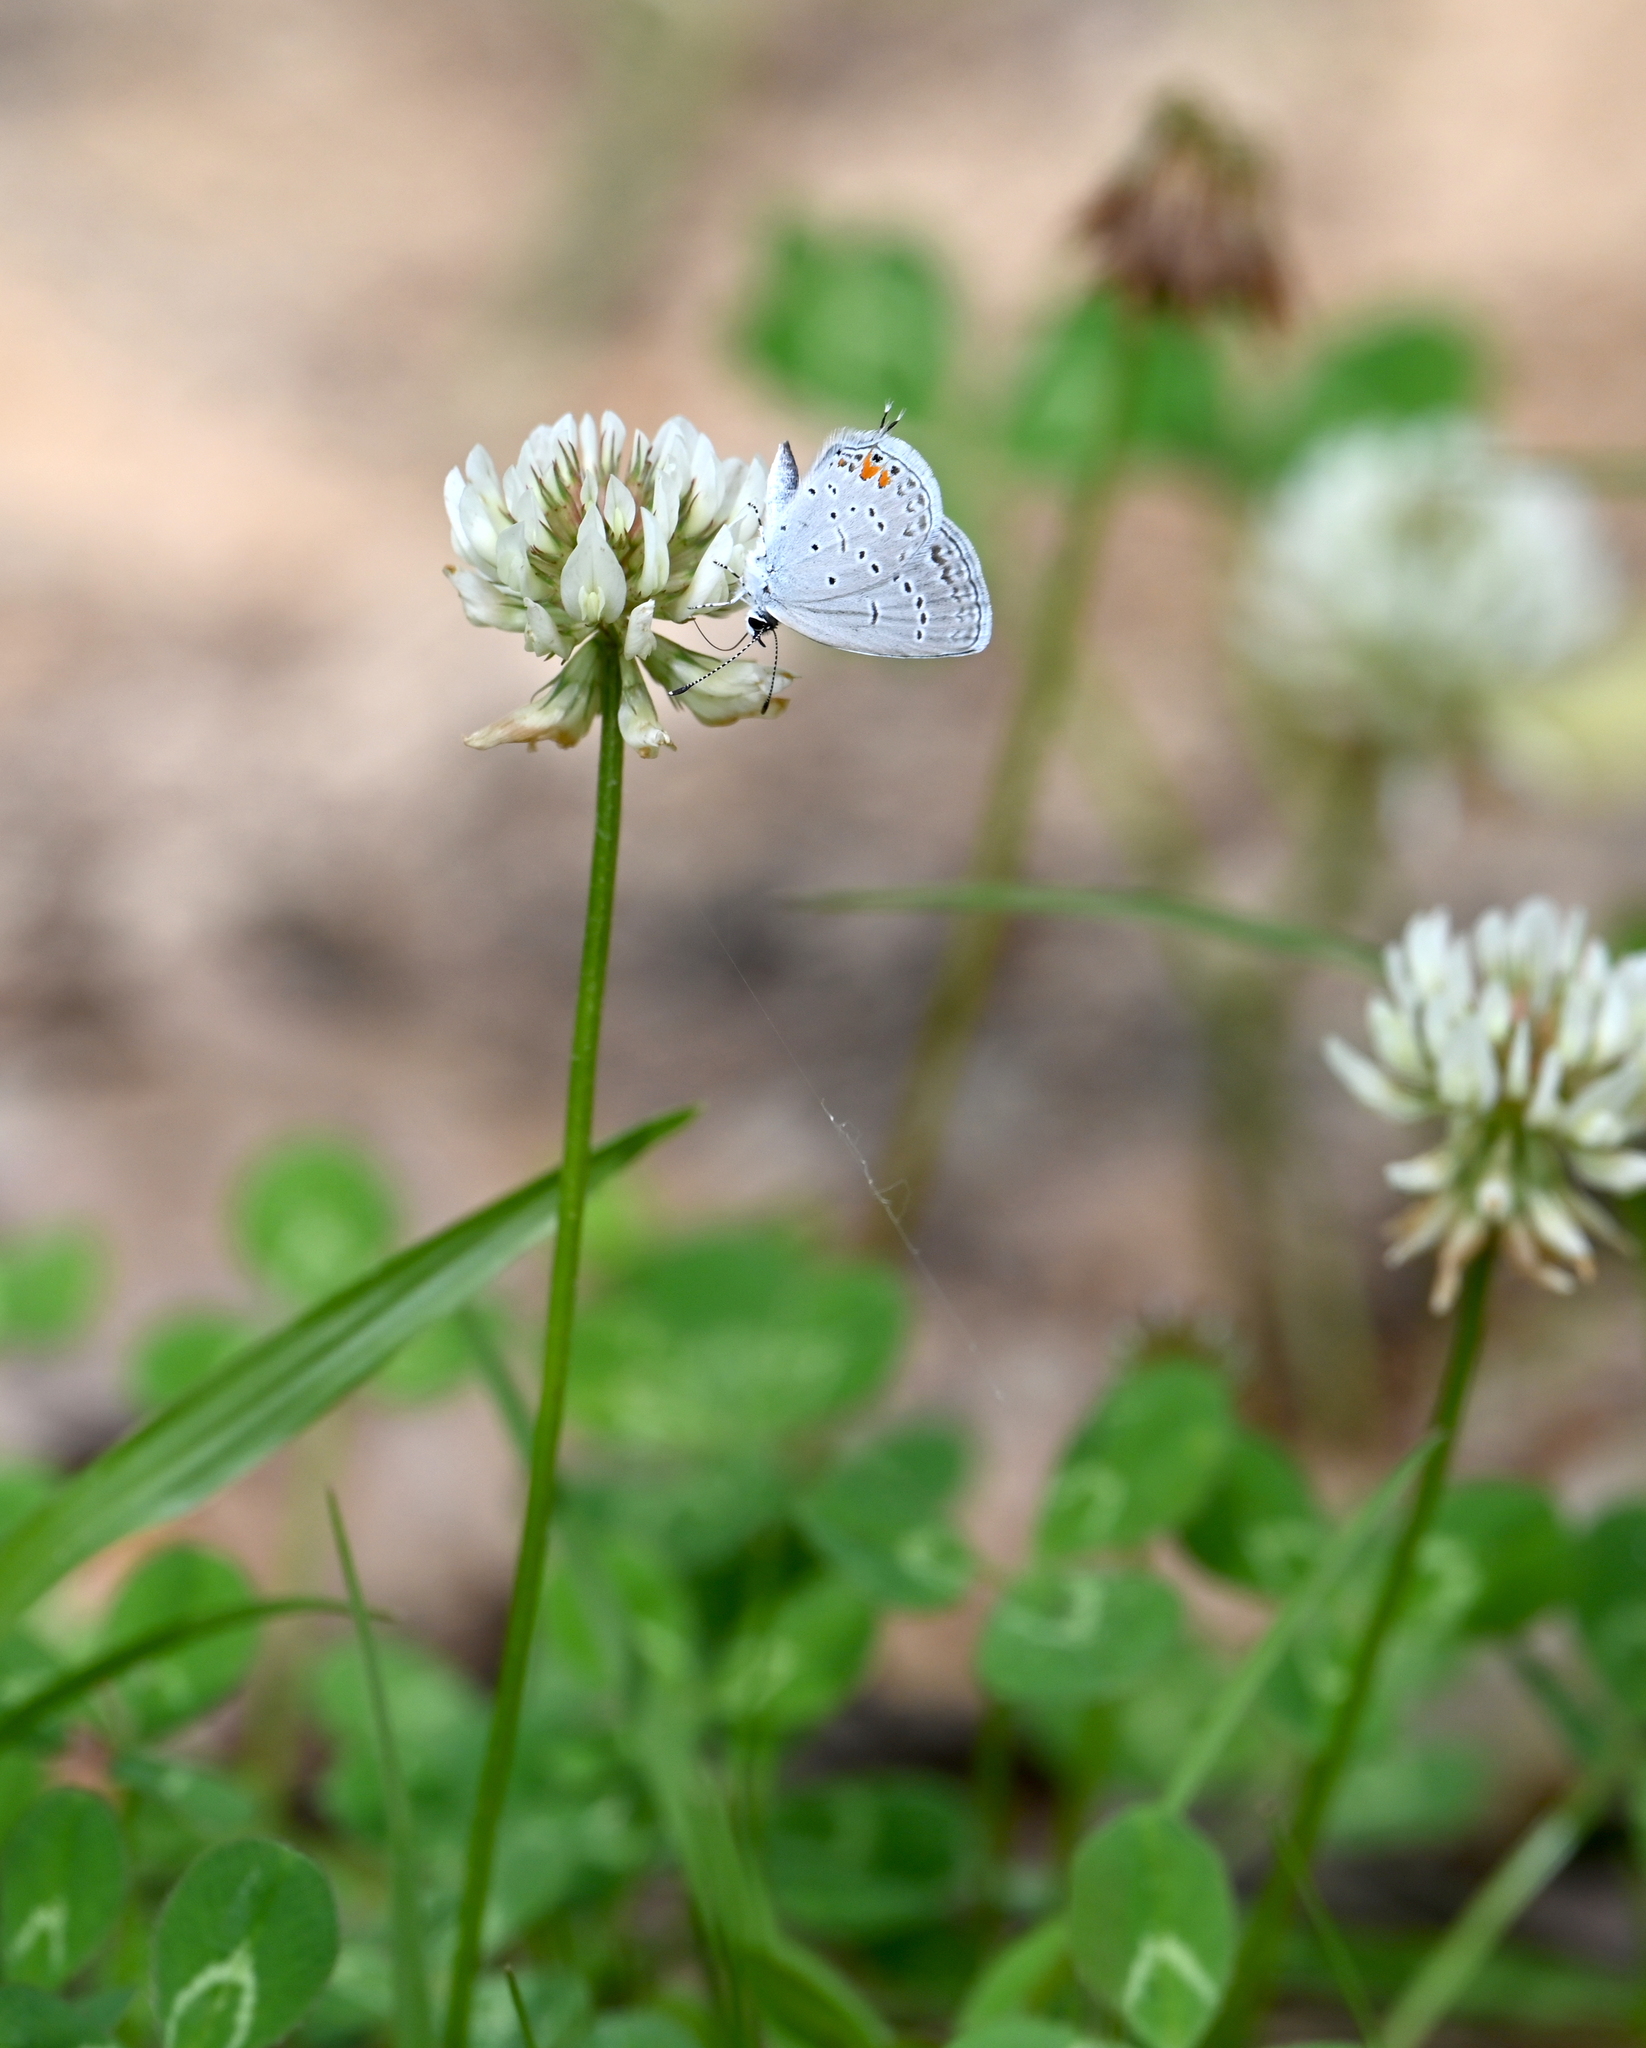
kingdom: Animalia
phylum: Arthropoda
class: Insecta
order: Lepidoptera
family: Lycaenidae
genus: Elkalyce
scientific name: Elkalyce comyntas
